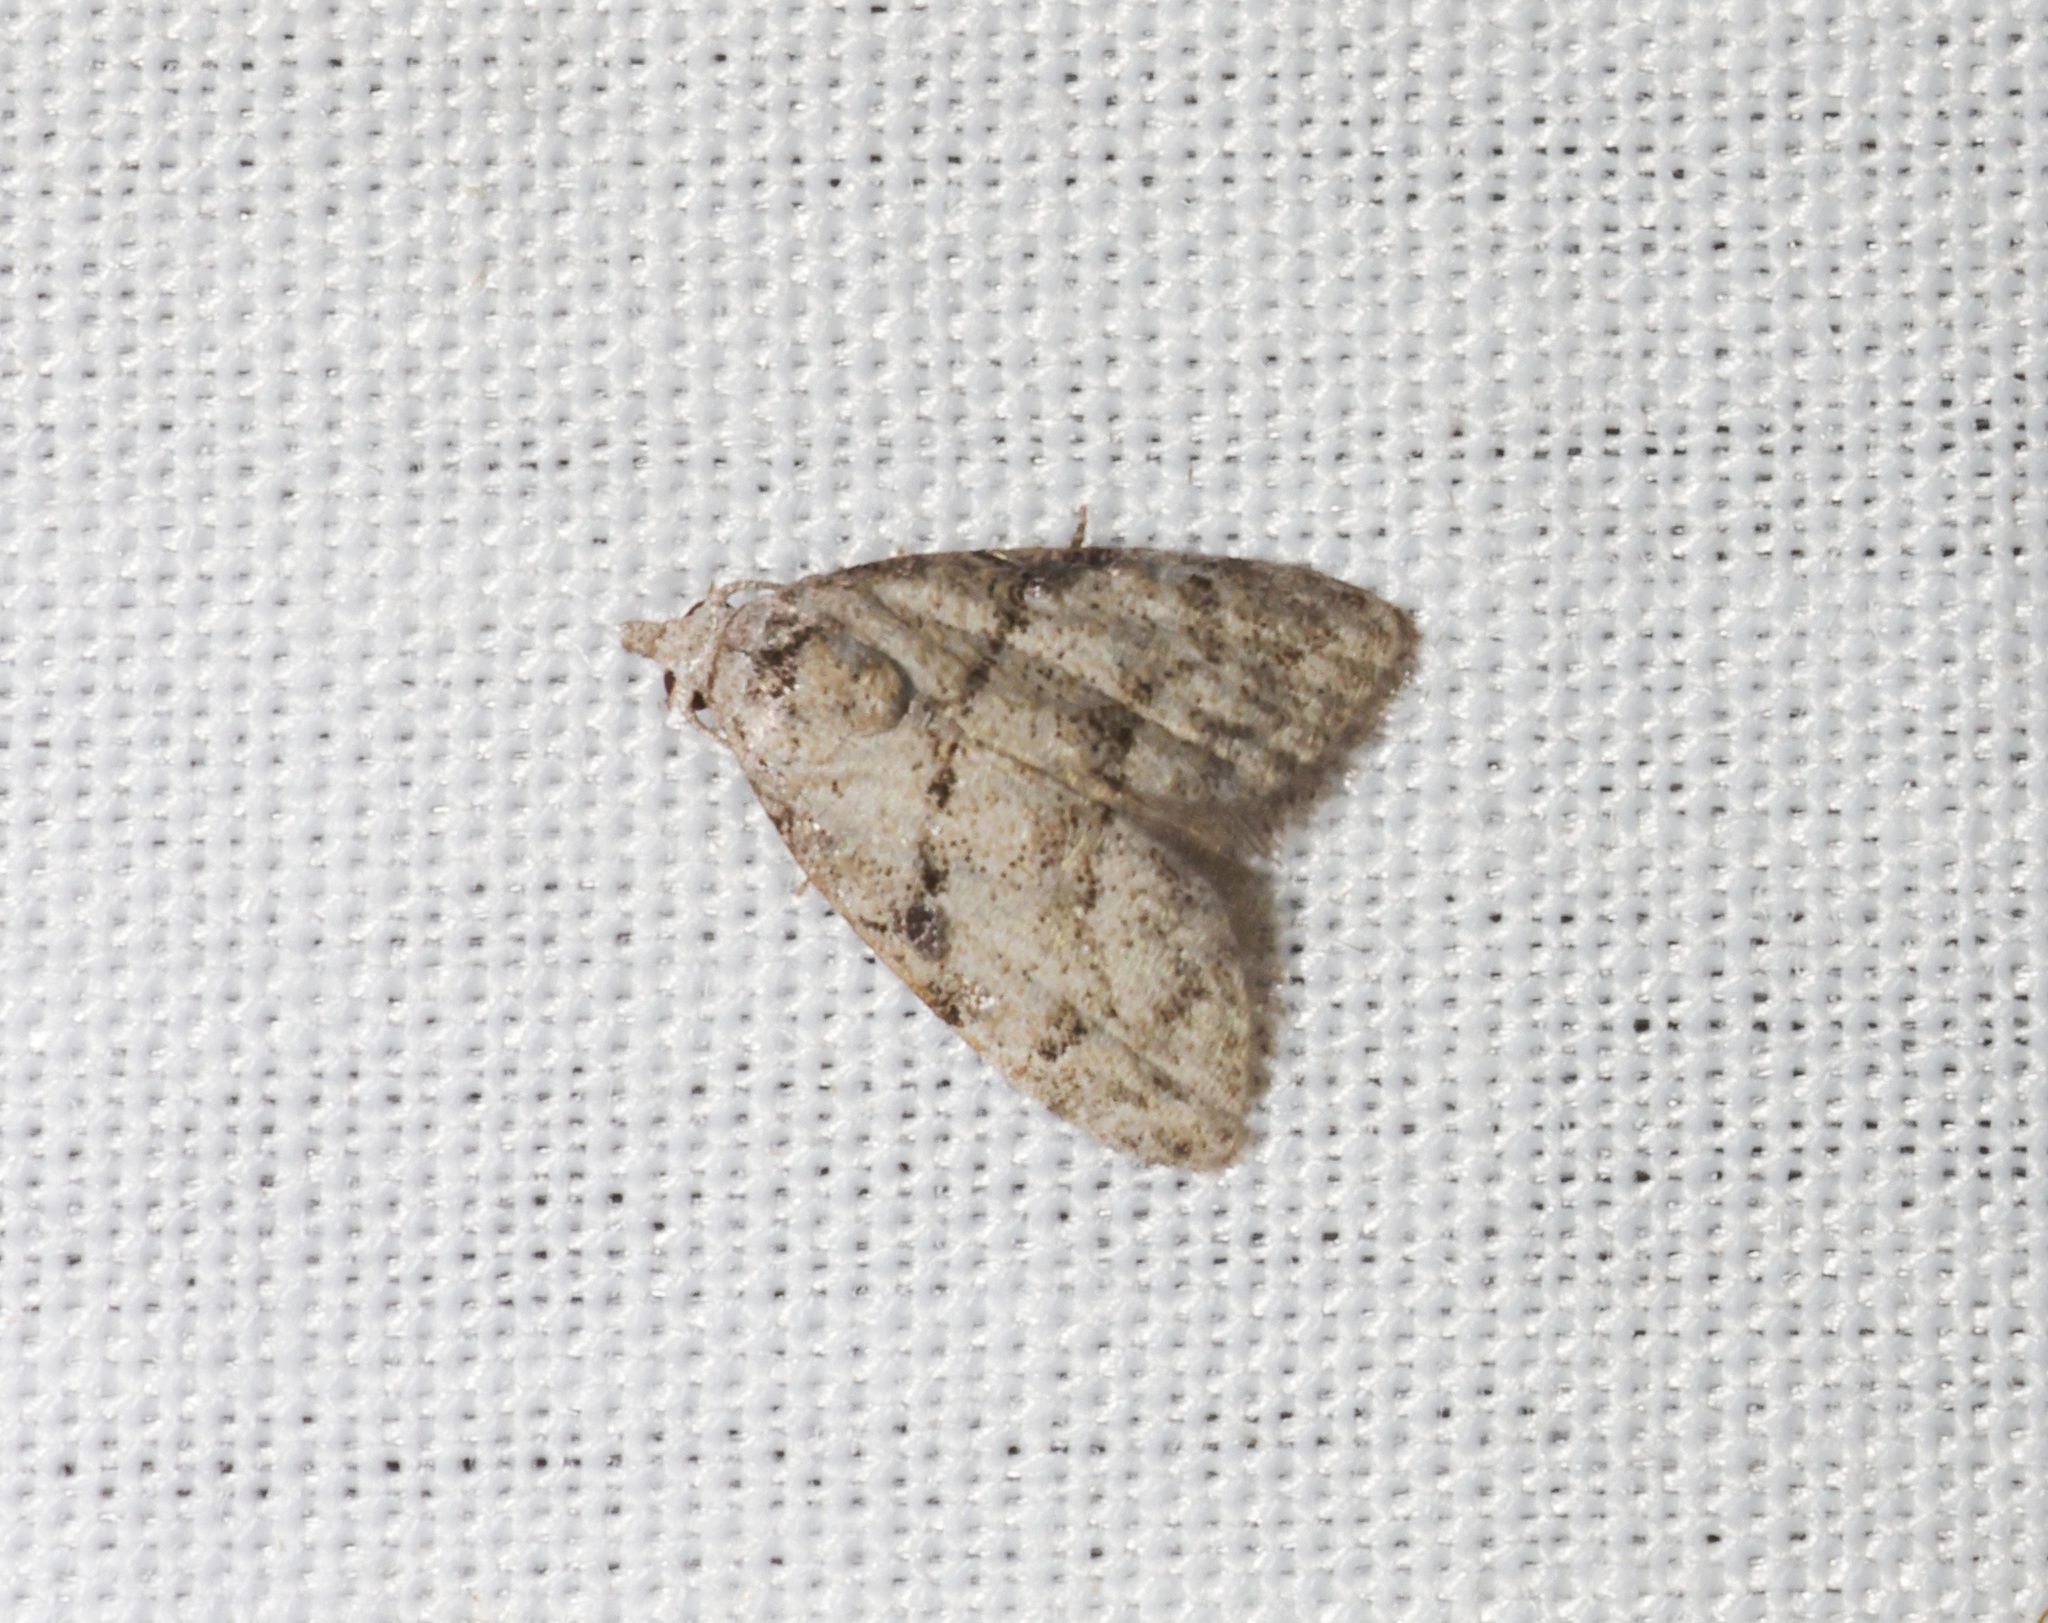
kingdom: Animalia
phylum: Arthropoda
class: Insecta
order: Lepidoptera
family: Nolidae
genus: Inouenola
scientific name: Inouenola pallescens
